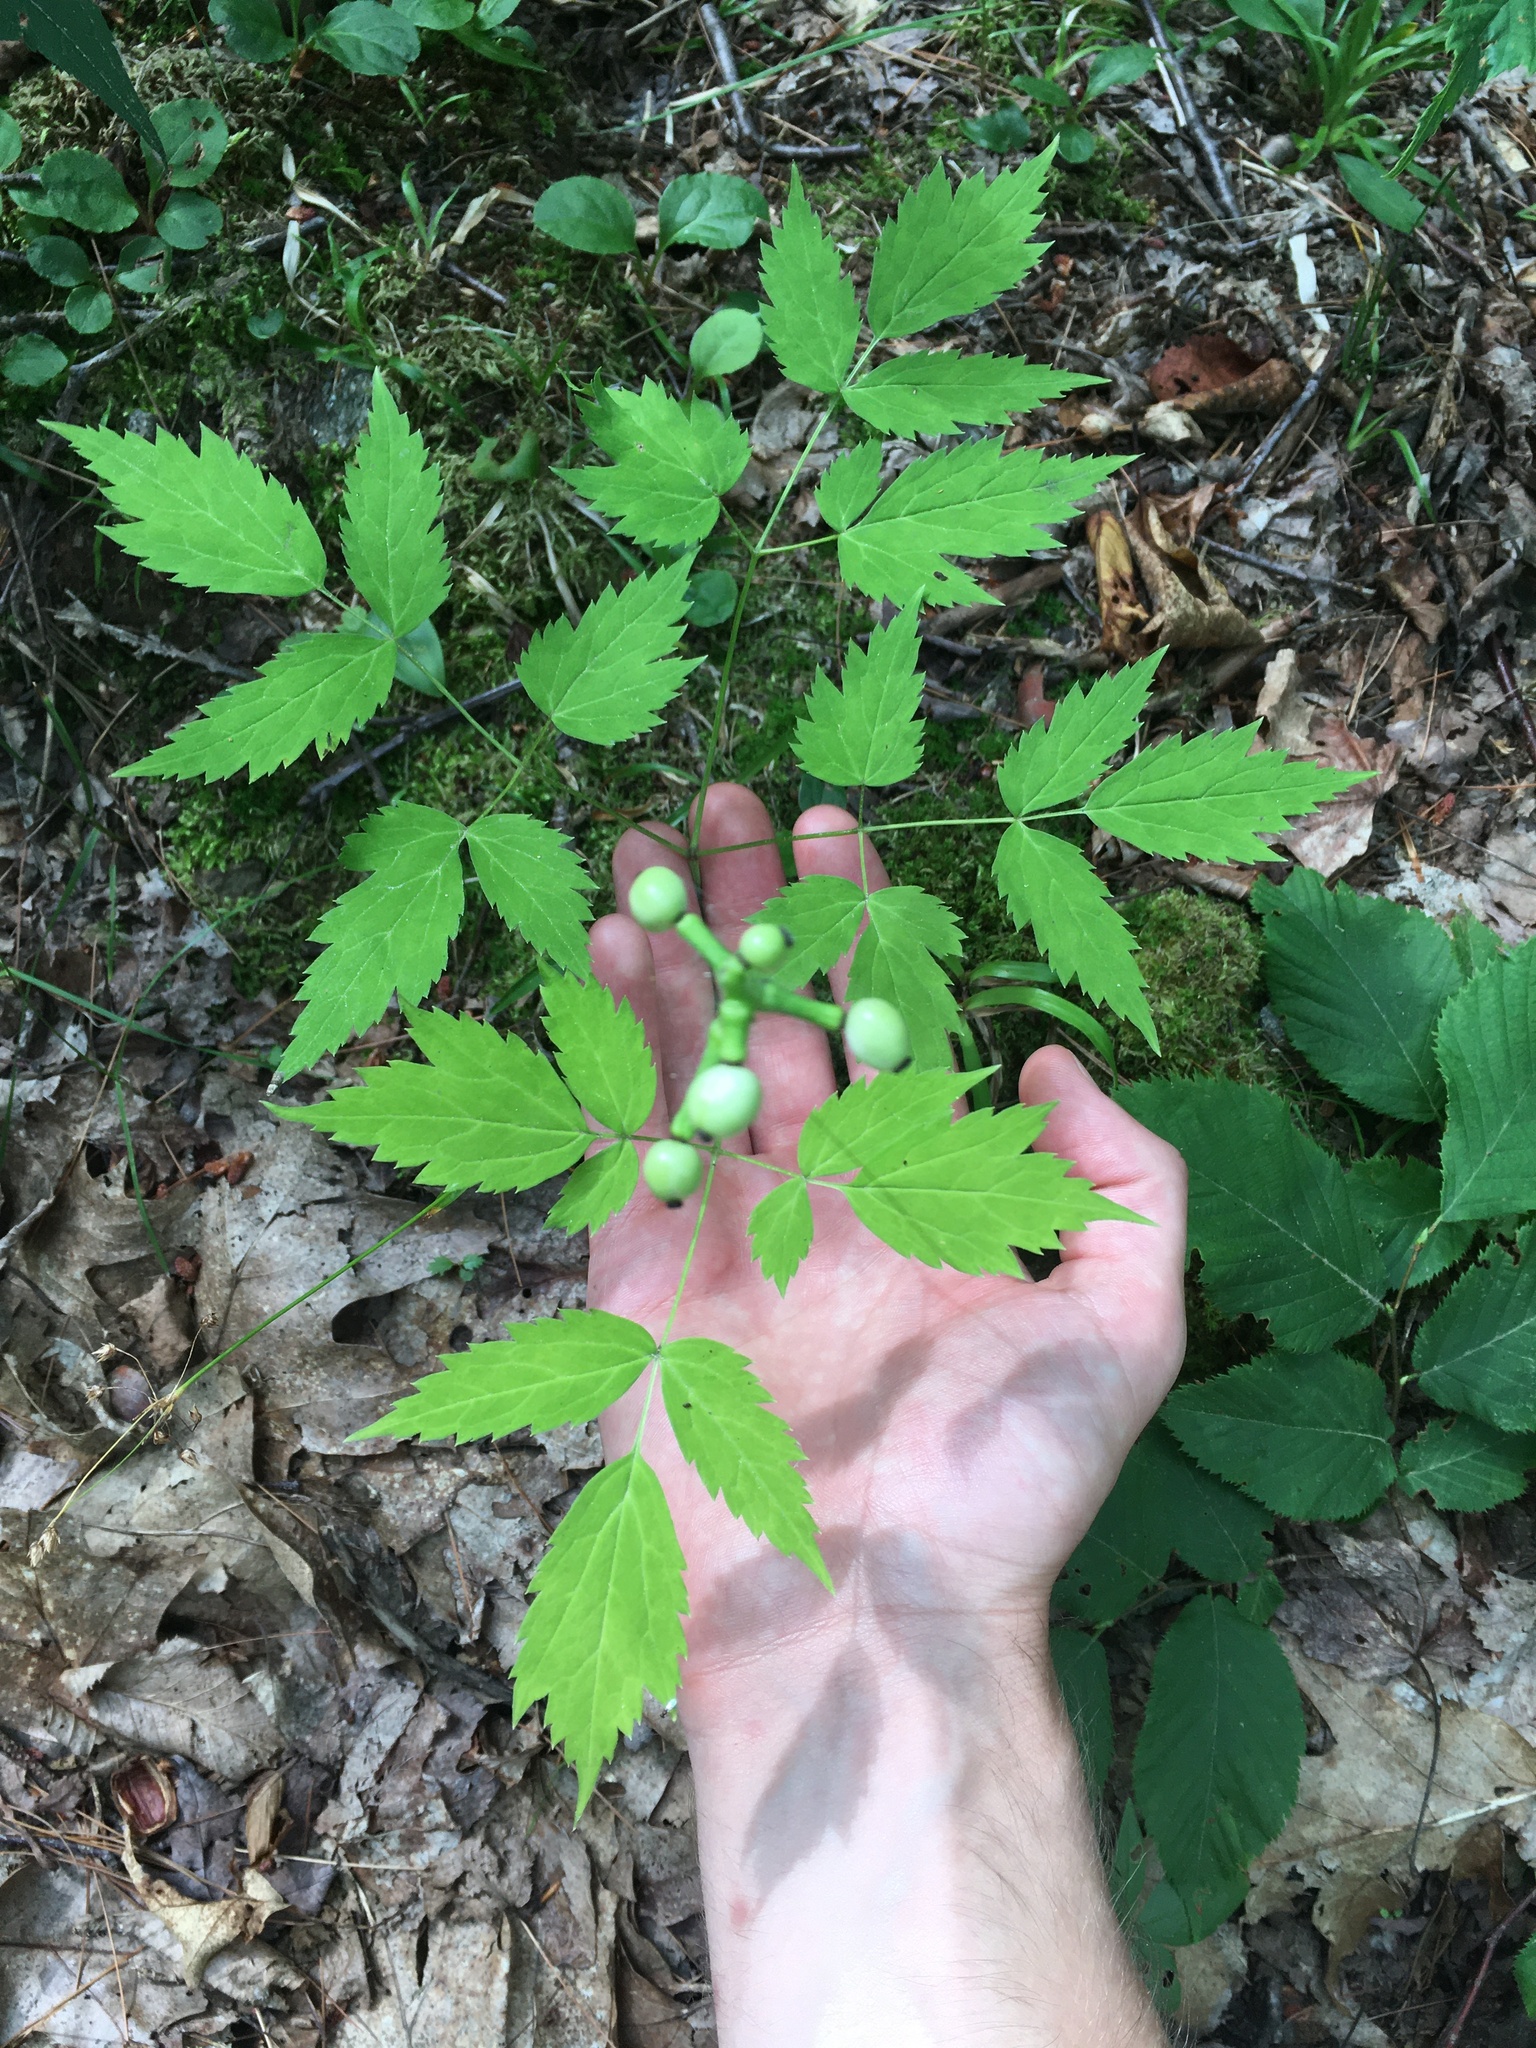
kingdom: Plantae
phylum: Tracheophyta
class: Magnoliopsida
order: Ranunculales
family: Ranunculaceae
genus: Actaea
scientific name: Actaea pachypoda
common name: Doll's-eyes
